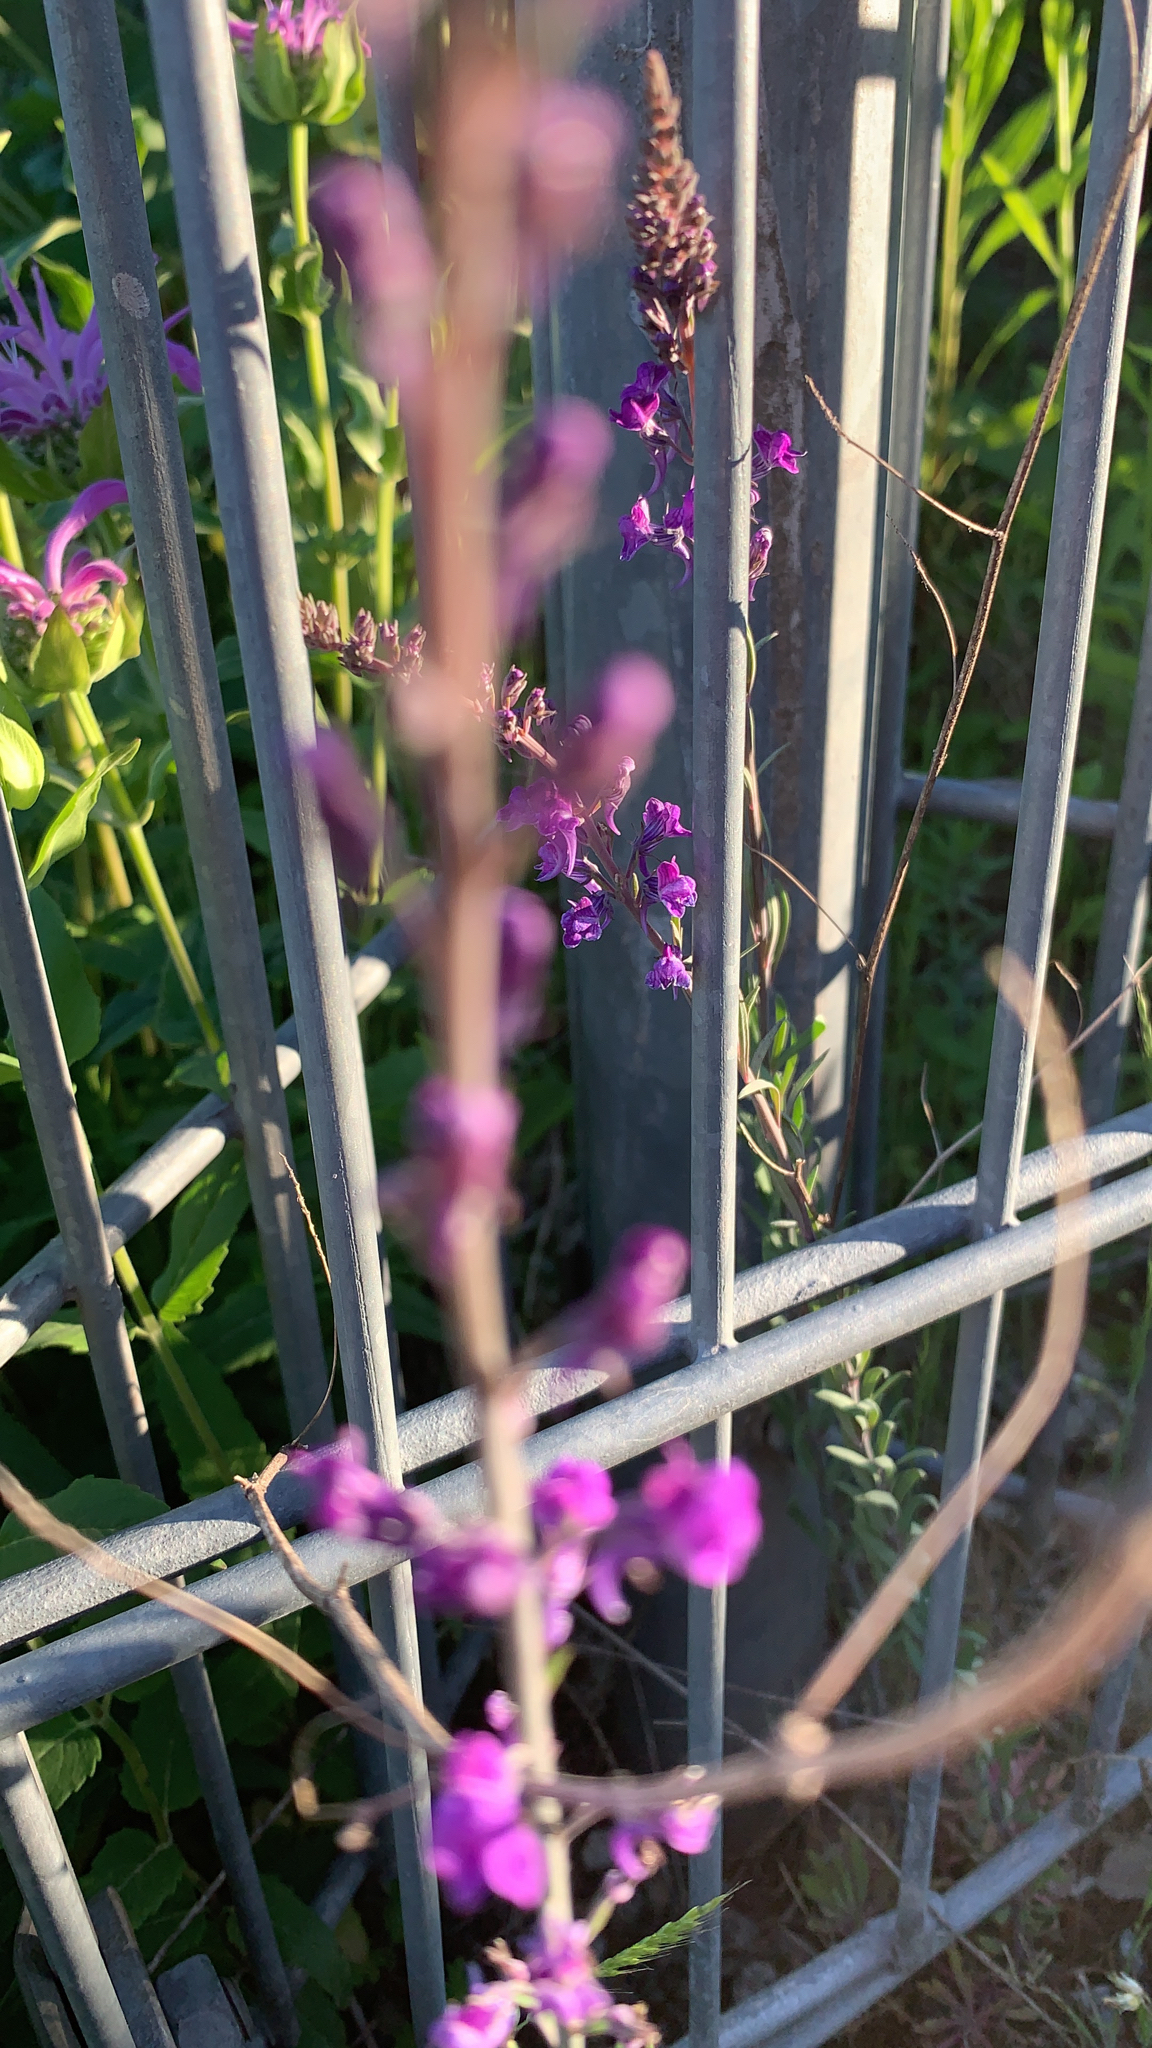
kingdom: Plantae
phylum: Tracheophyta
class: Magnoliopsida
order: Lamiales
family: Plantaginaceae
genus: Linaria
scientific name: Linaria purpurea
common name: Purple toadflax
